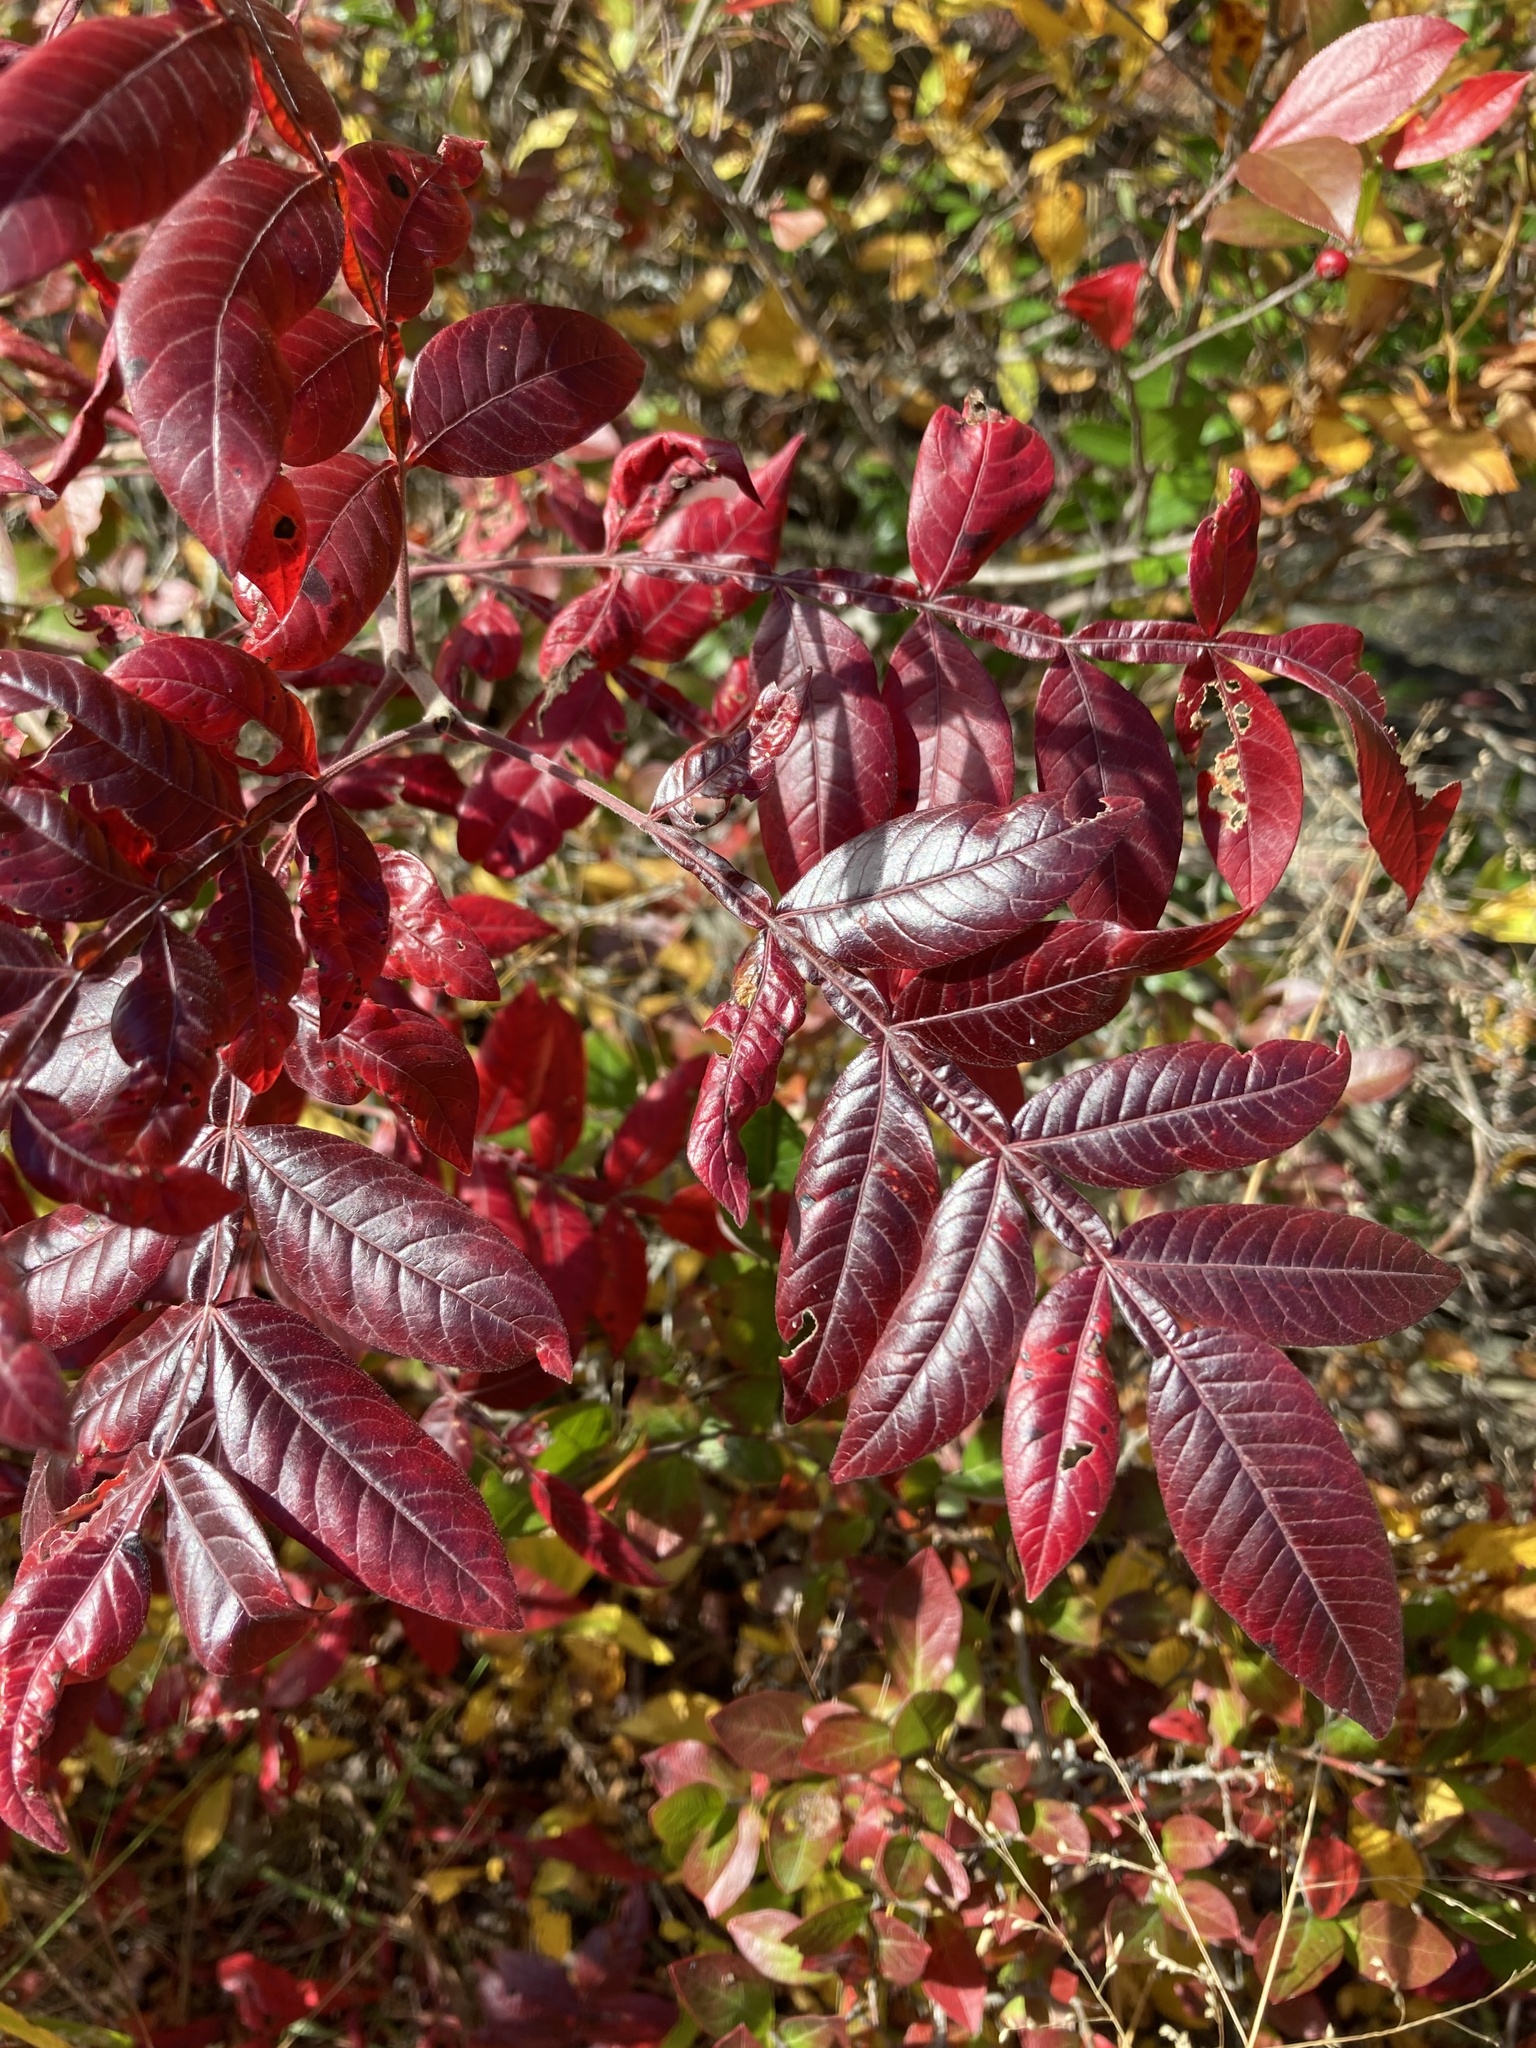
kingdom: Plantae
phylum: Tracheophyta
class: Magnoliopsida
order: Sapindales
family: Anacardiaceae
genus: Rhus
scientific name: Rhus copallina
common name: Shining sumac
